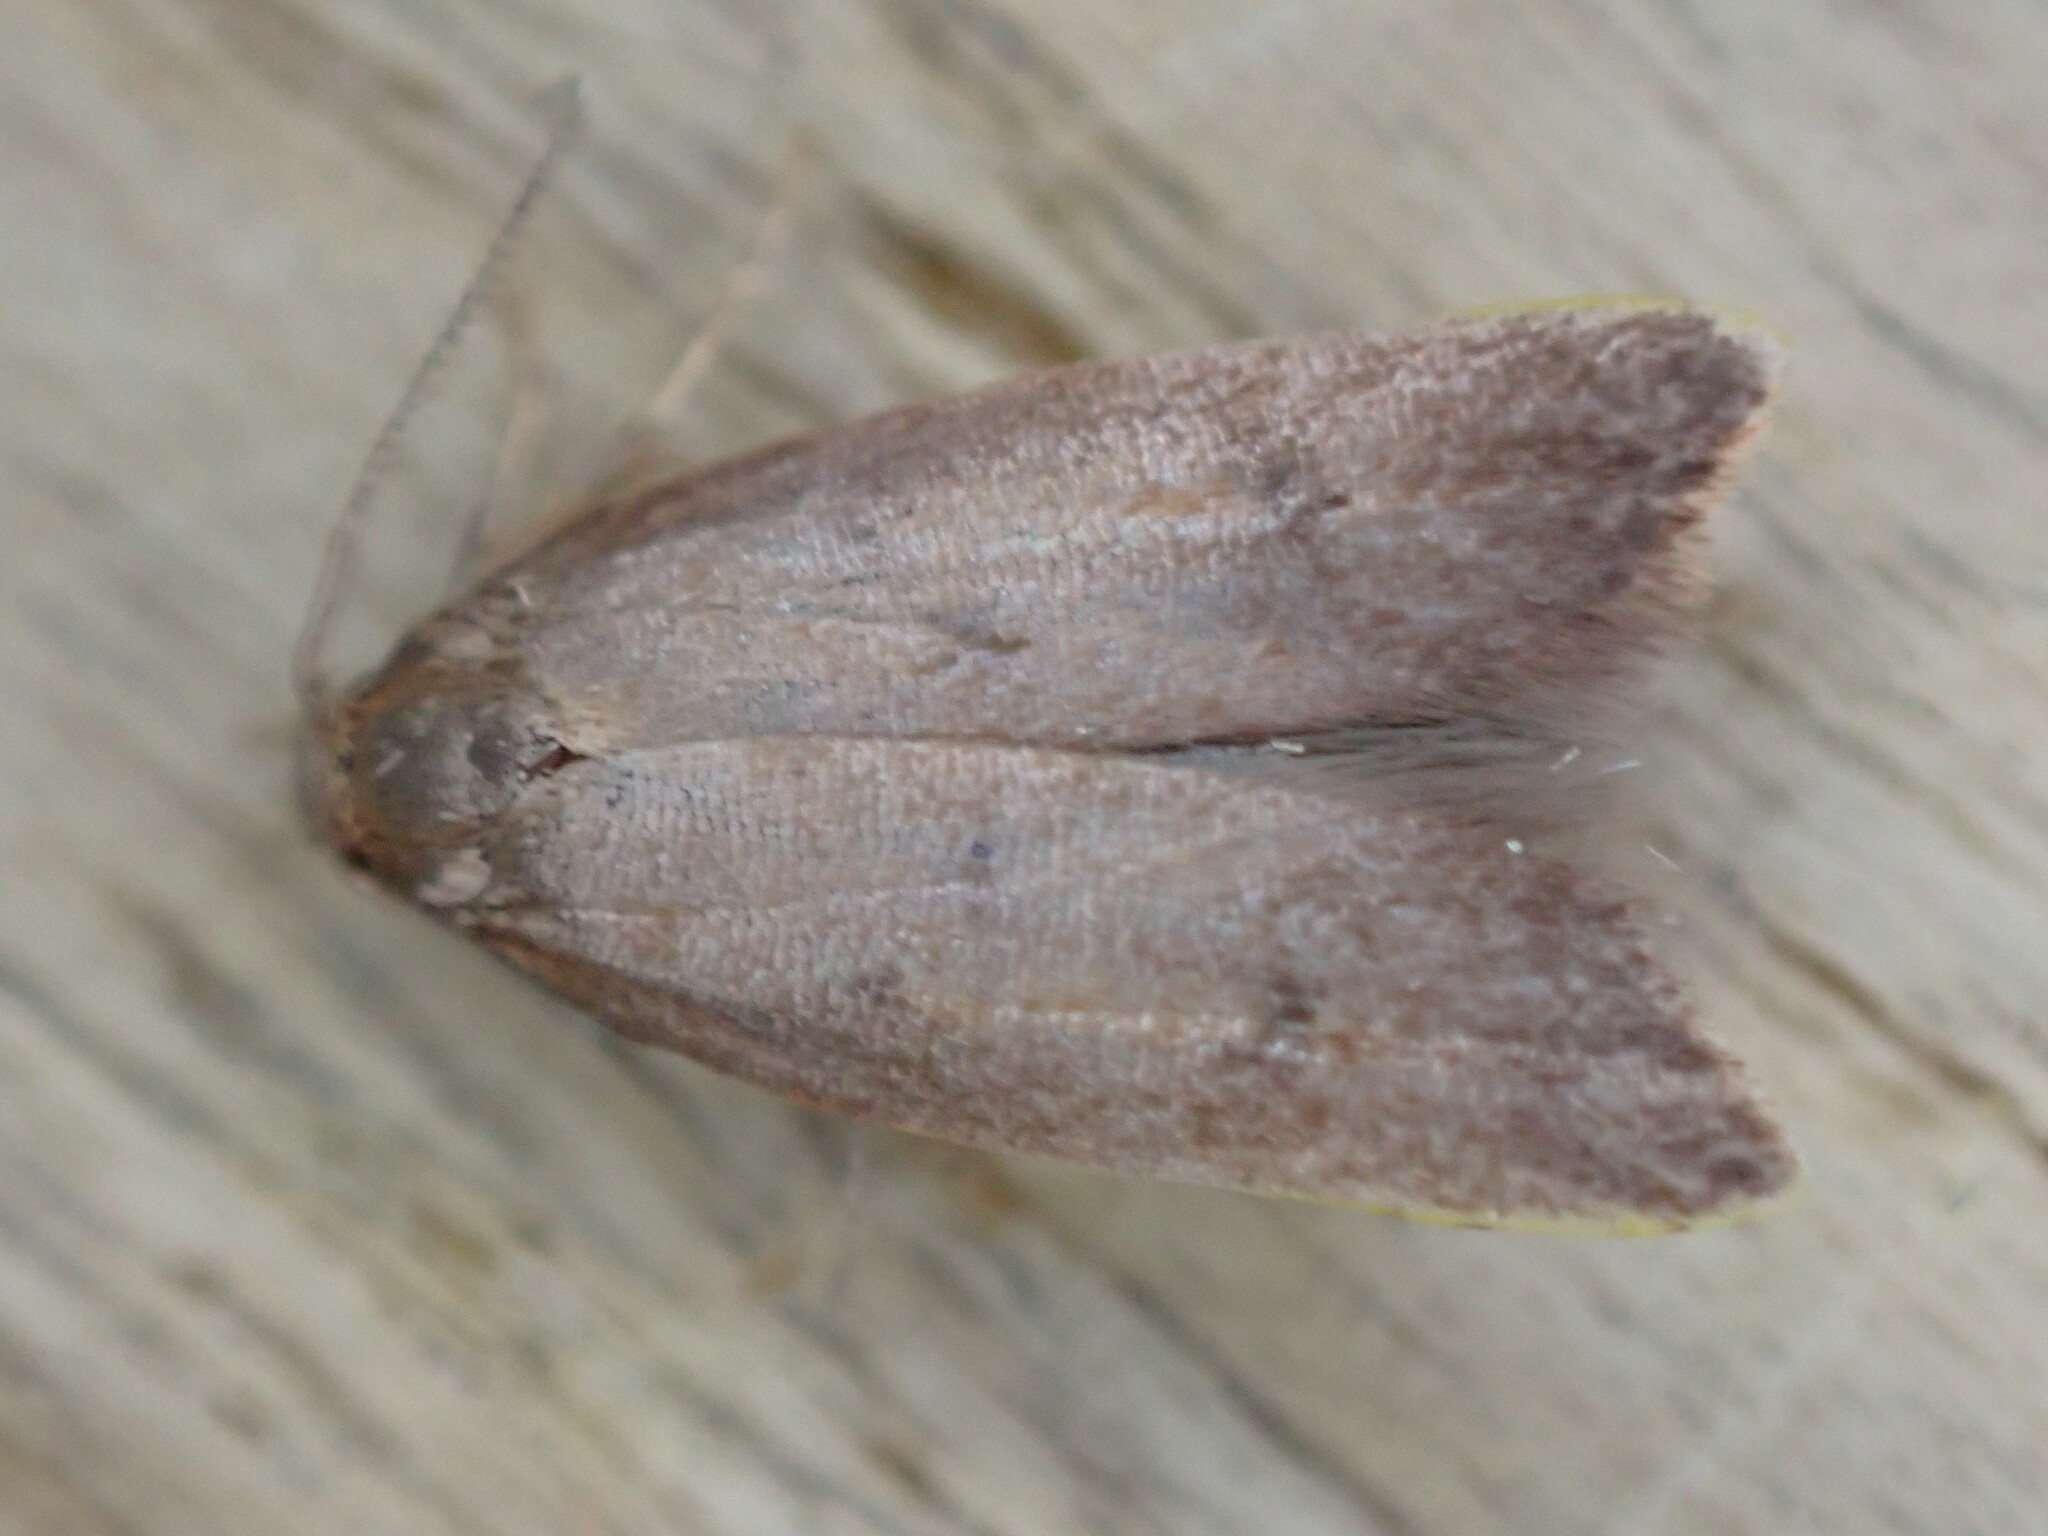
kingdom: Animalia
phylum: Arthropoda
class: Insecta
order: Lepidoptera
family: Oecophoridae
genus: Tachystola
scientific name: Tachystola acroxantha
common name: Ruddy streak
